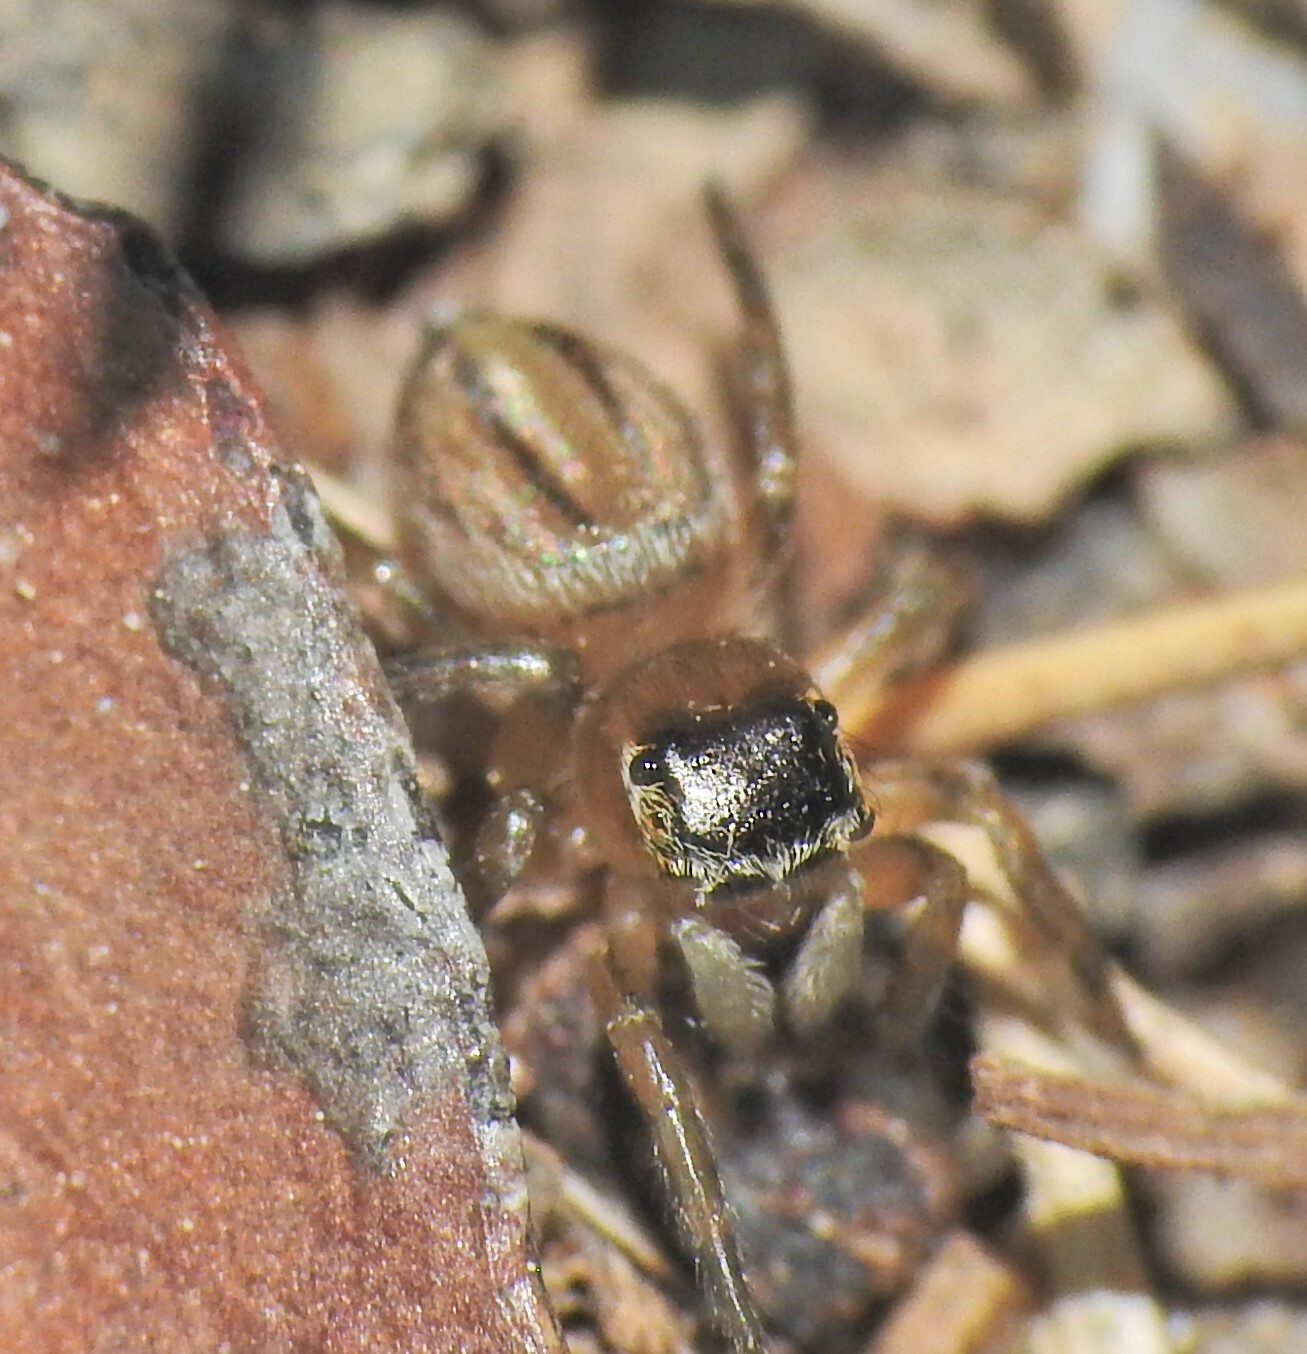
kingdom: Animalia
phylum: Arthropoda
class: Arachnida
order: Araneae
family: Salticidae
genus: Maratus
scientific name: Maratus scutulatus
